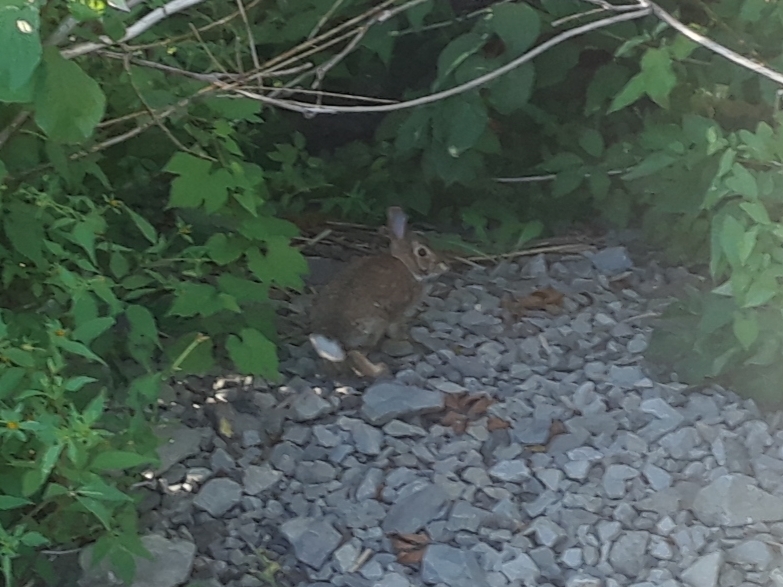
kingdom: Animalia
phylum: Chordata
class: Mammalia
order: Lagomorpha
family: Leporidae
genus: Sylvilagus
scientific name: Sylvilagus floridanus
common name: Eastern cottontail
